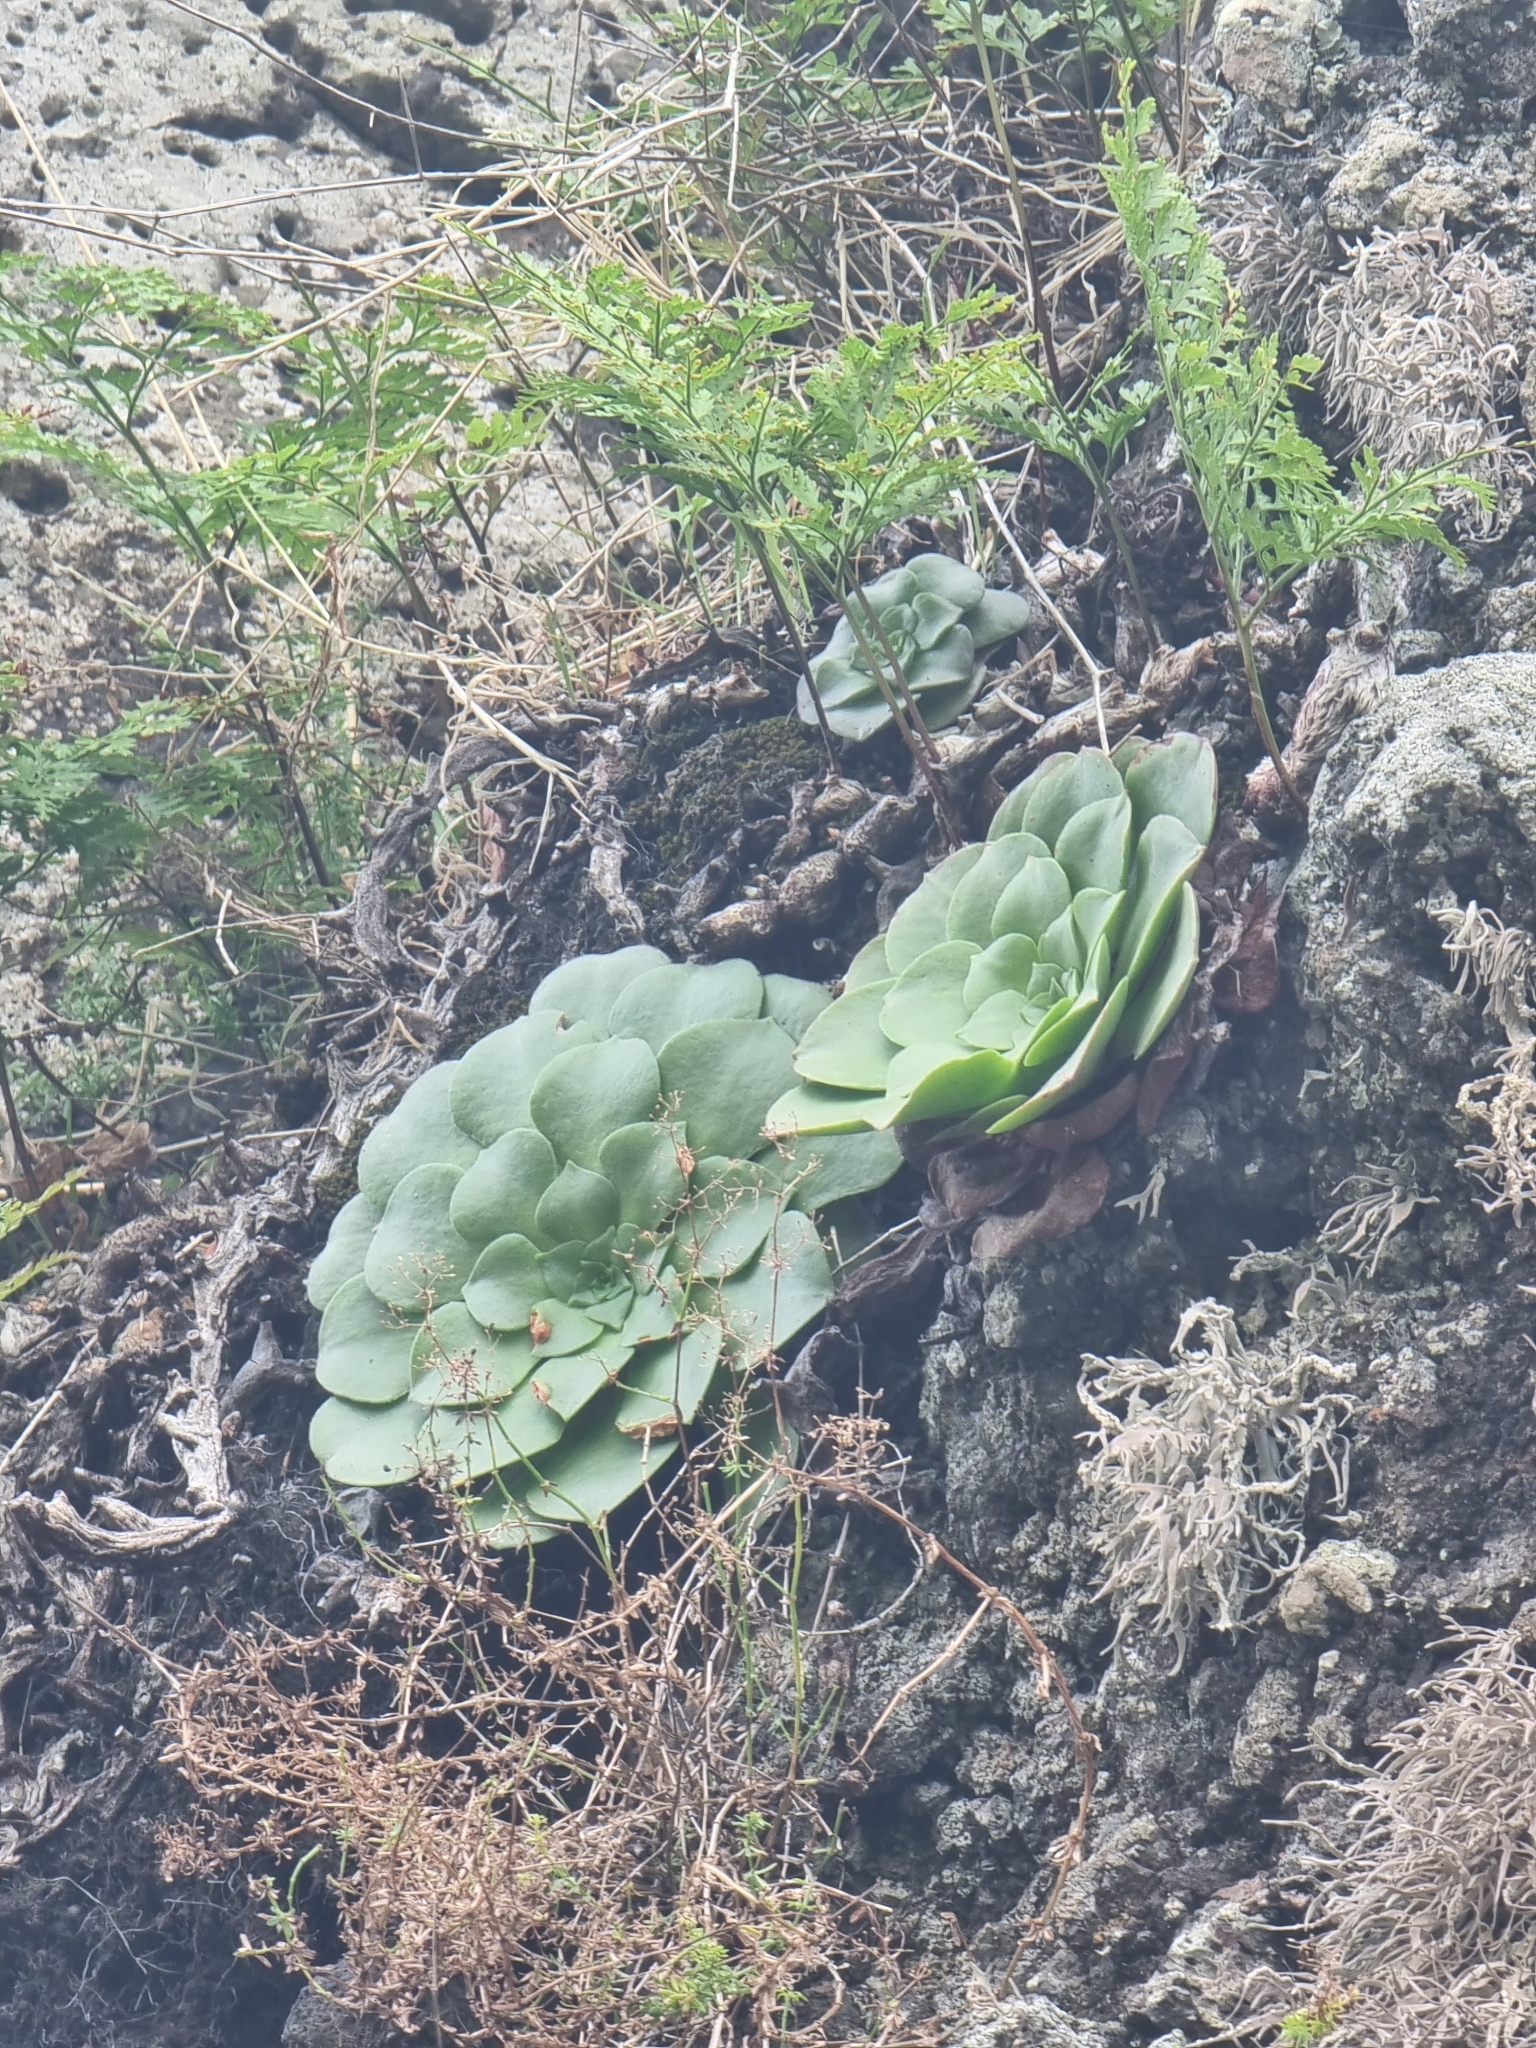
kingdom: Plantae
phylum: Tracheophyta
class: Magnoliopsida
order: Saxifragales
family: Crassulaceae
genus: Aeonium
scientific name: Aeonium glandulosum
